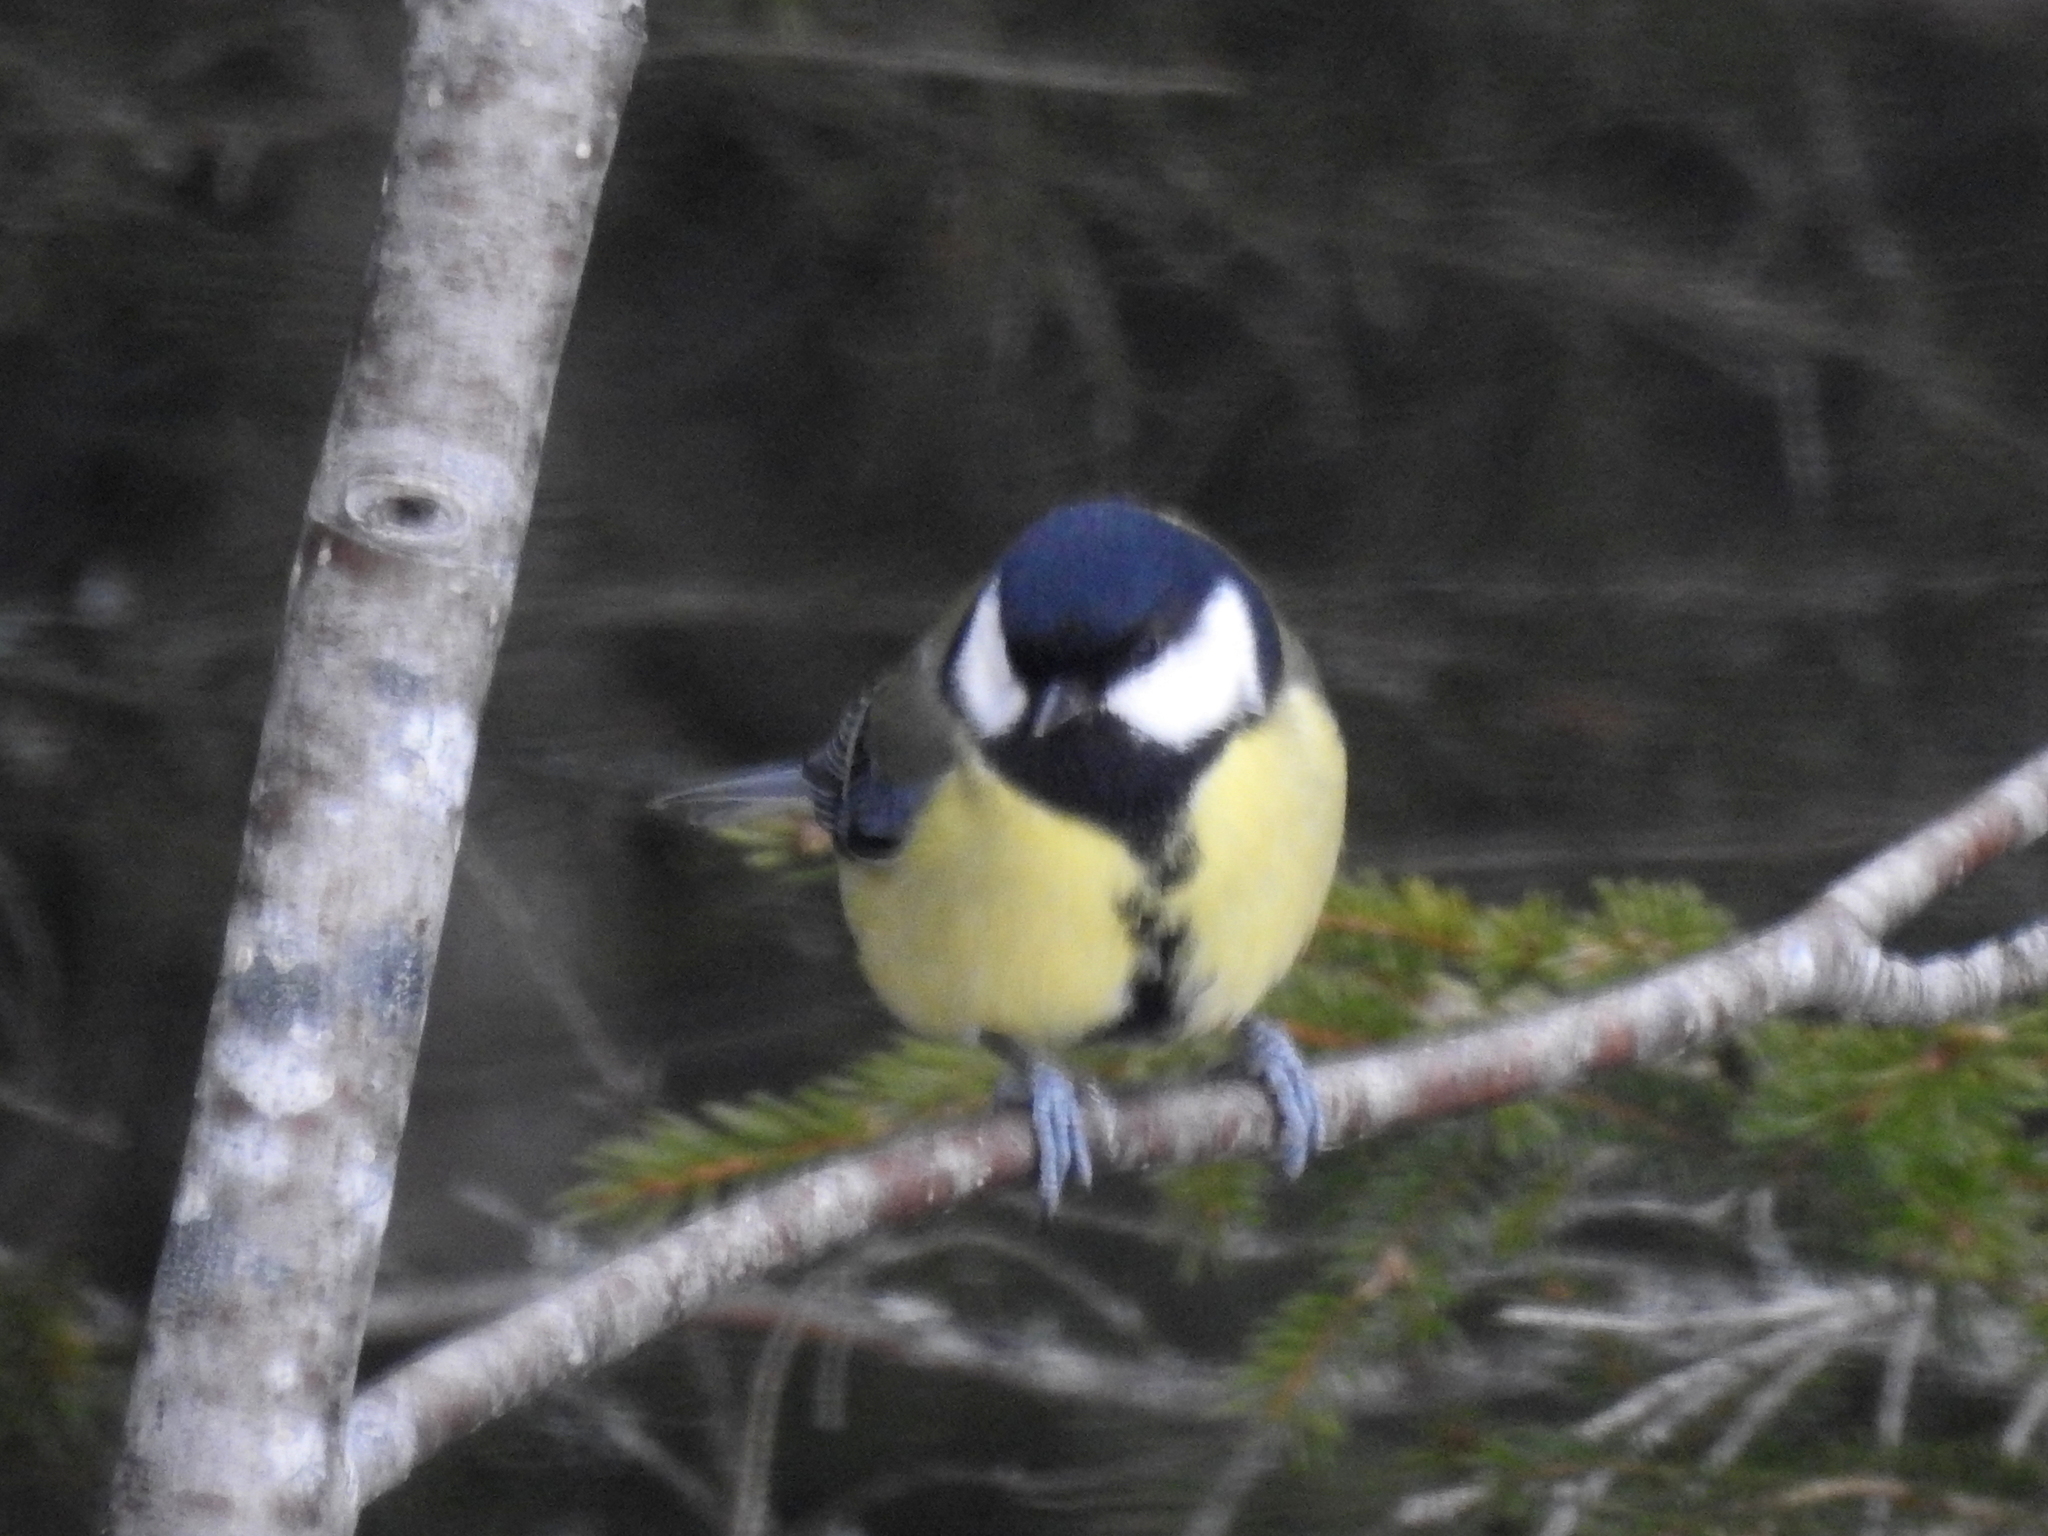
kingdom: Animalia
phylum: Chordata
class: Aves
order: Passeriformes
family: Paridae
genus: Parus
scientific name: Parus major
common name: Great tit
